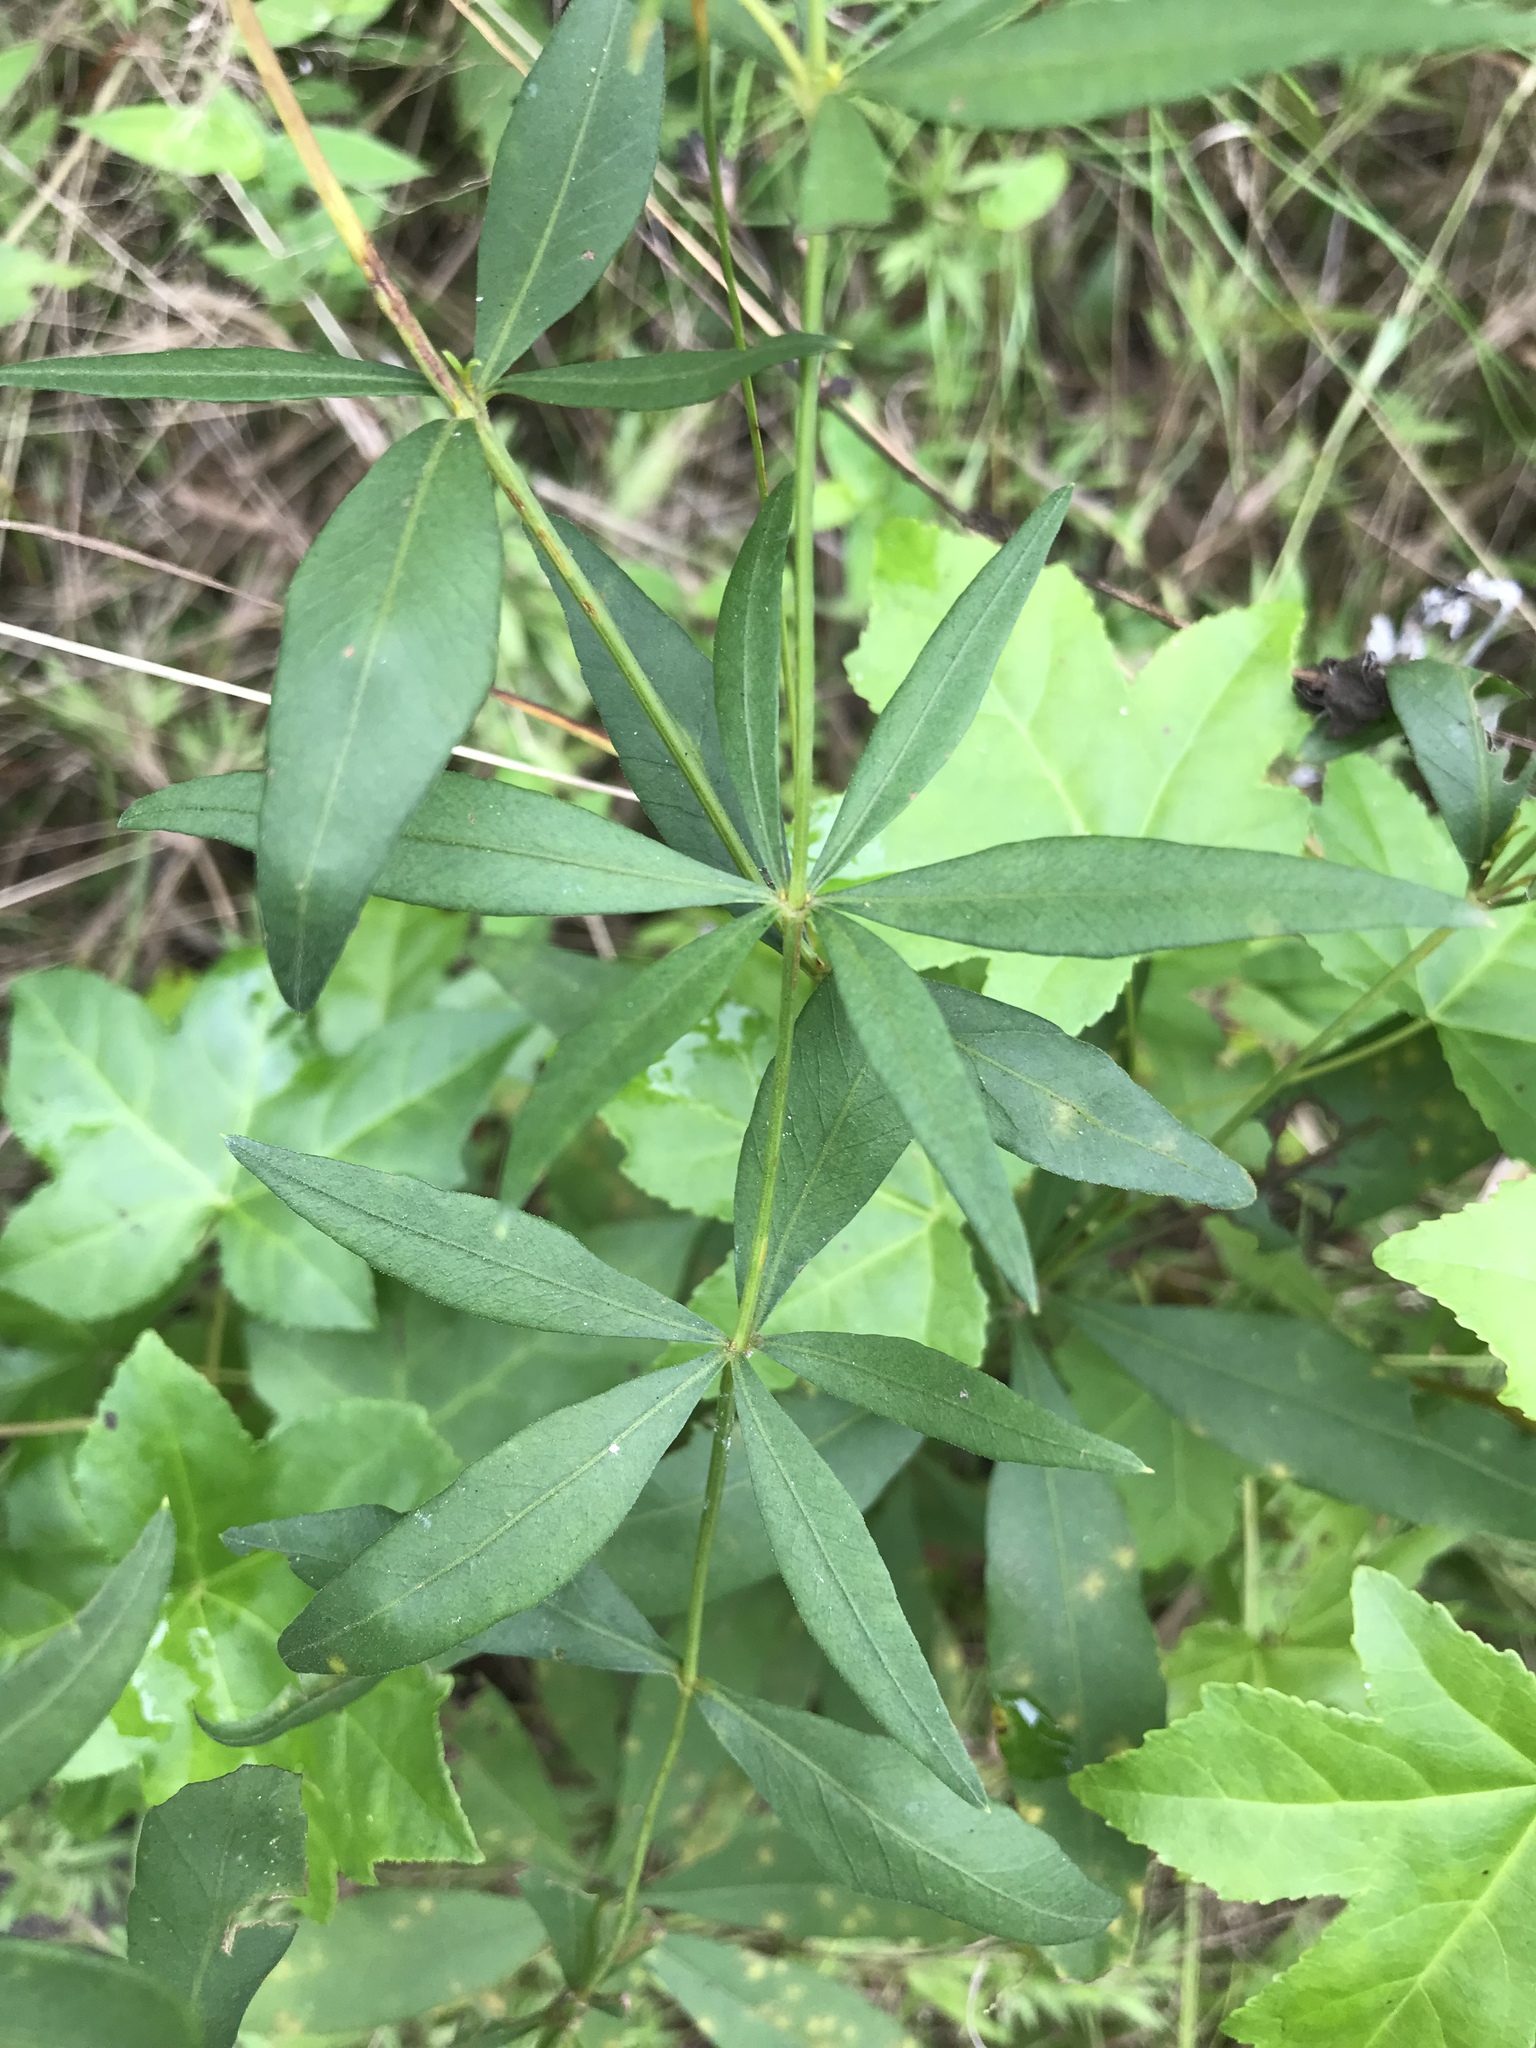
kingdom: Plantae
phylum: Tracheophyta
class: Magnoliopsida
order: Asterales
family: Asteraceae
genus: Coreopsis
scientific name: Coreopsis major
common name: Forest tickseed
